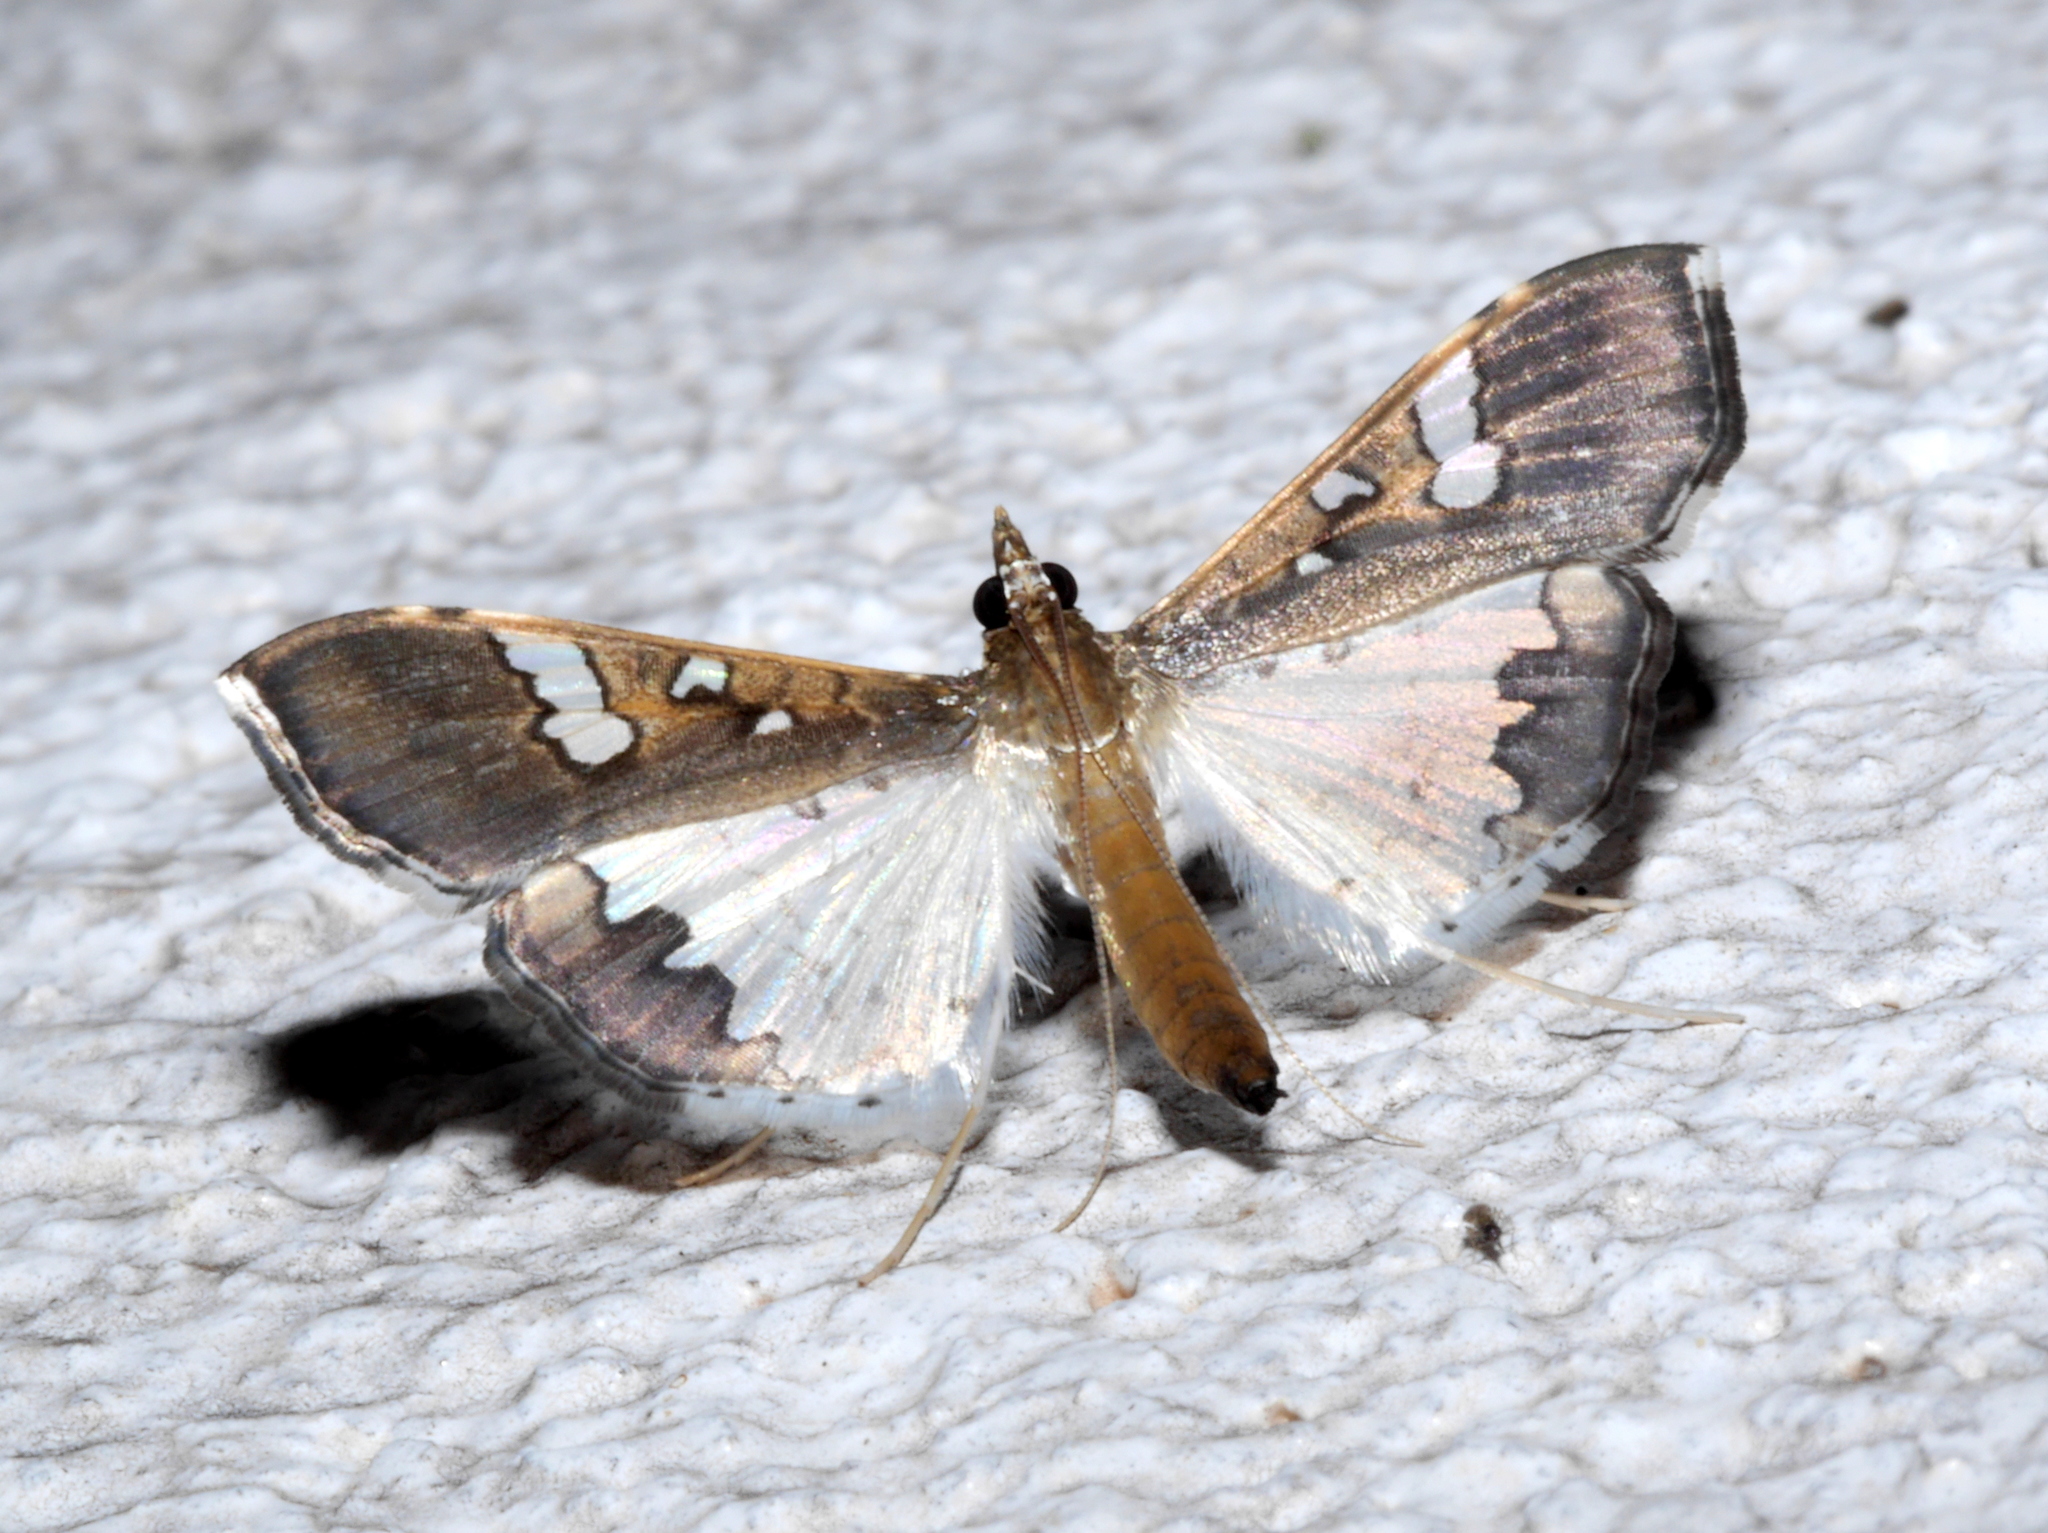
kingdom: Animalia
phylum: Arthropoda
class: Insecta
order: Lepidoptera
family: Crambidae
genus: Maruca
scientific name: Maruca vitrata
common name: Maruca pod borer
